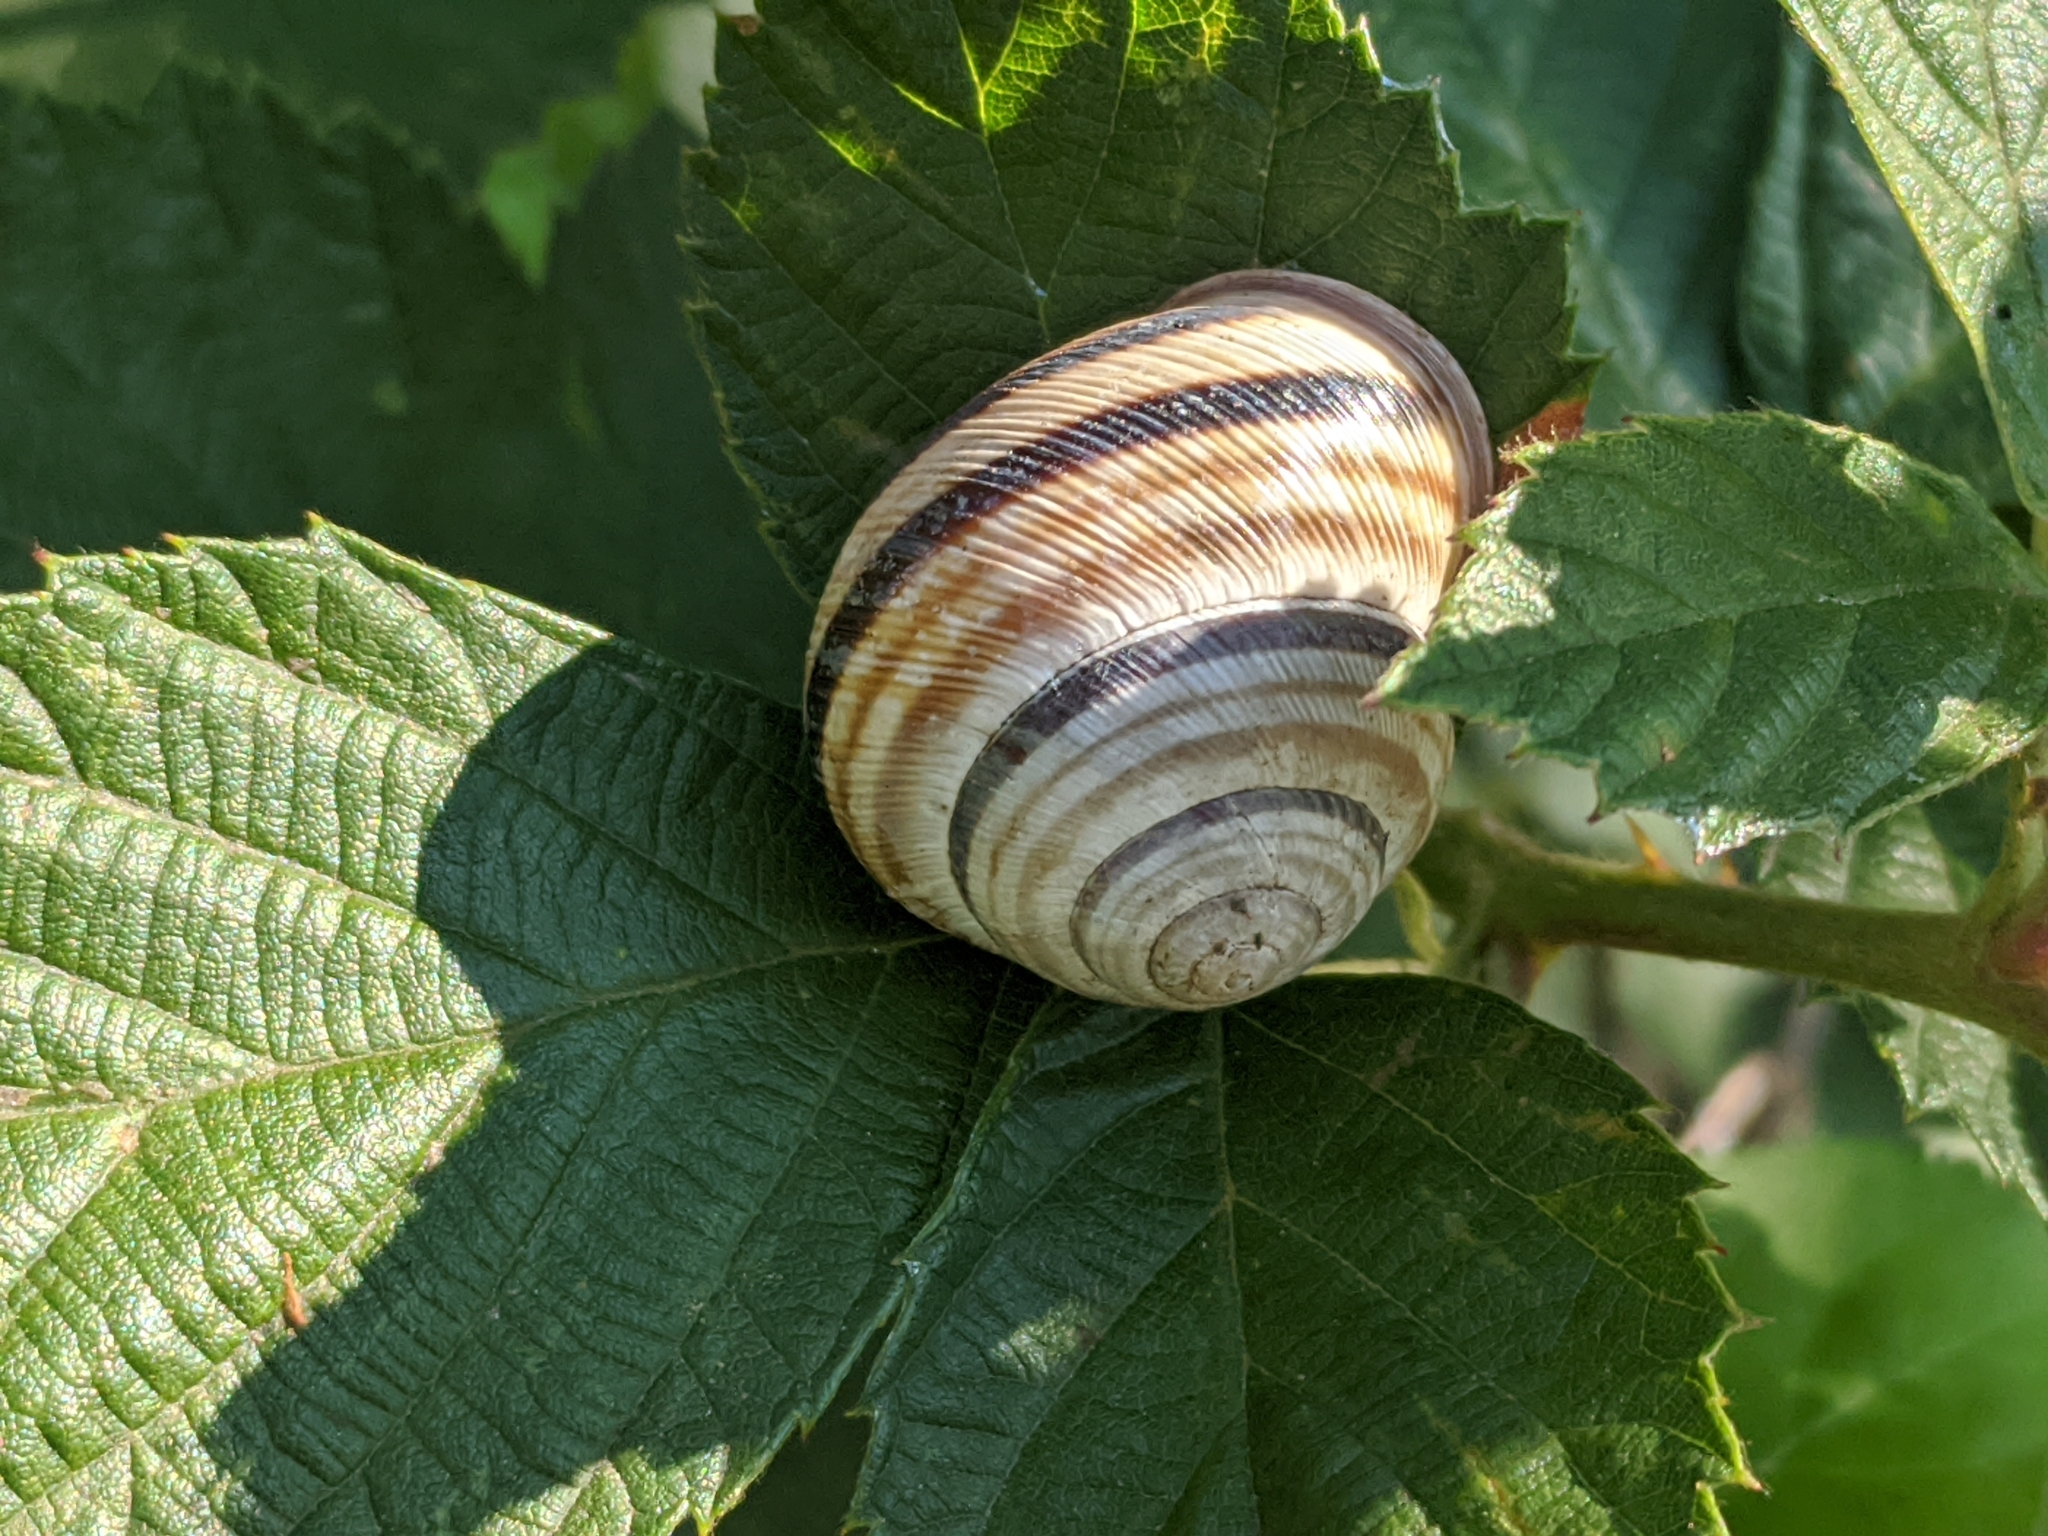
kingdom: Animalia
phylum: Mollusca
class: Gastropoda
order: Stylommatophora
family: Helicidae
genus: Caucasotachea
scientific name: Caucasotachea vindobonensis
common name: European helicid land snail
